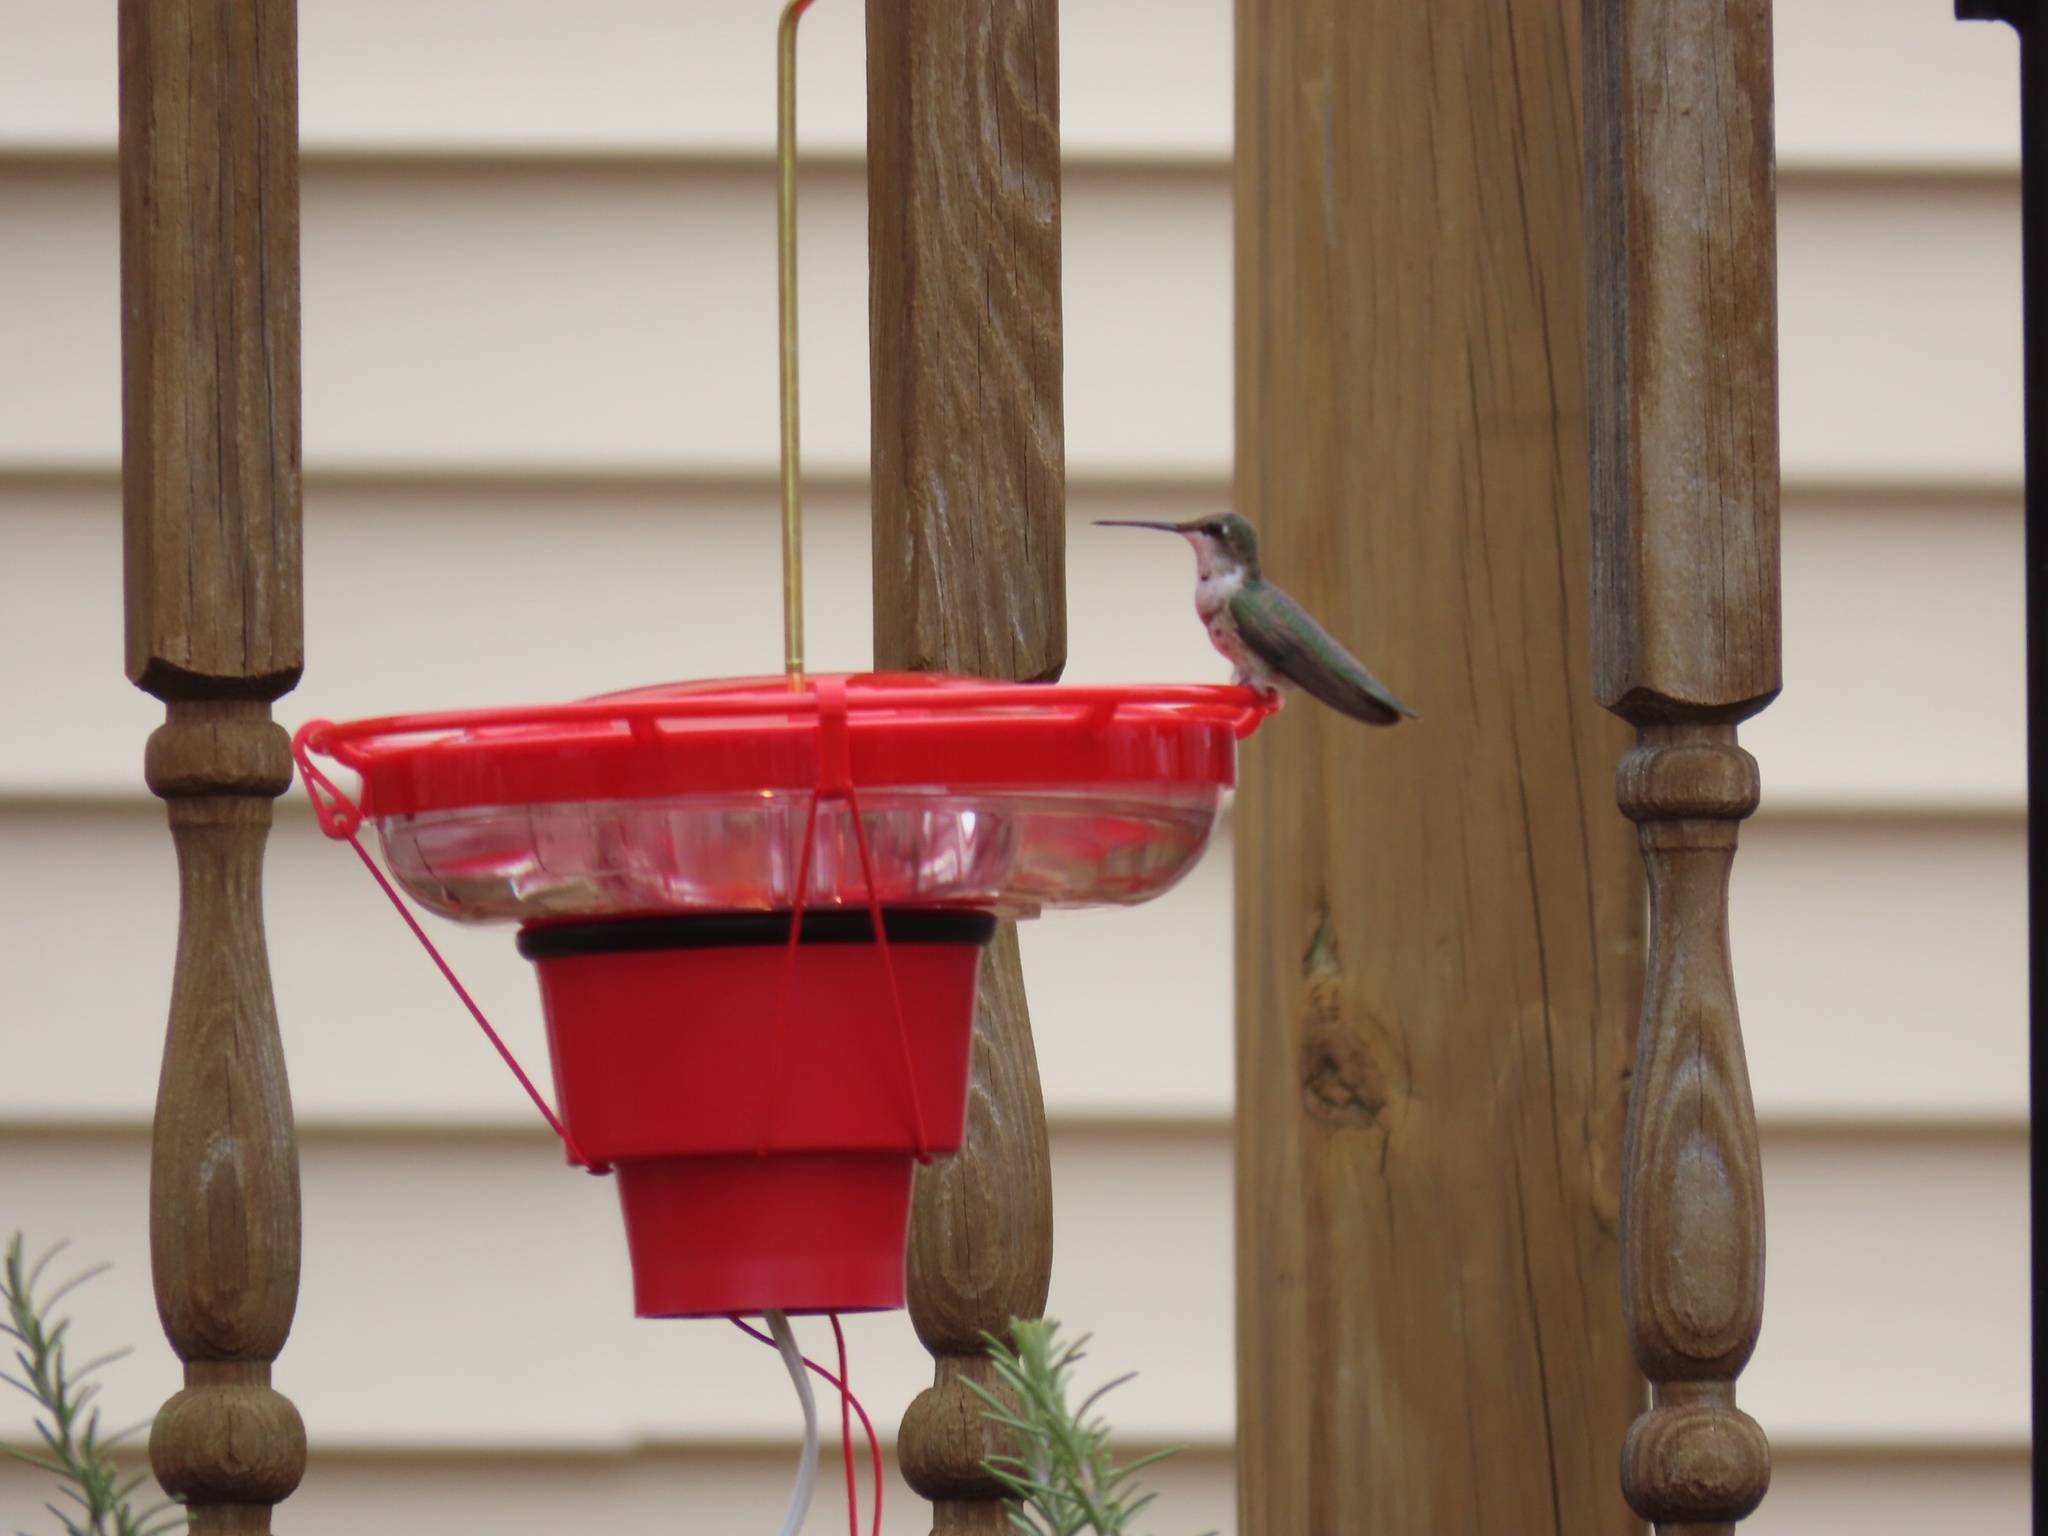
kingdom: Animalia
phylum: Chordata
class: Aves
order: Apodiformes
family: Trochilidae
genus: Archilochus
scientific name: Archilochus alexandri
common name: Black-chinned hummingbird
